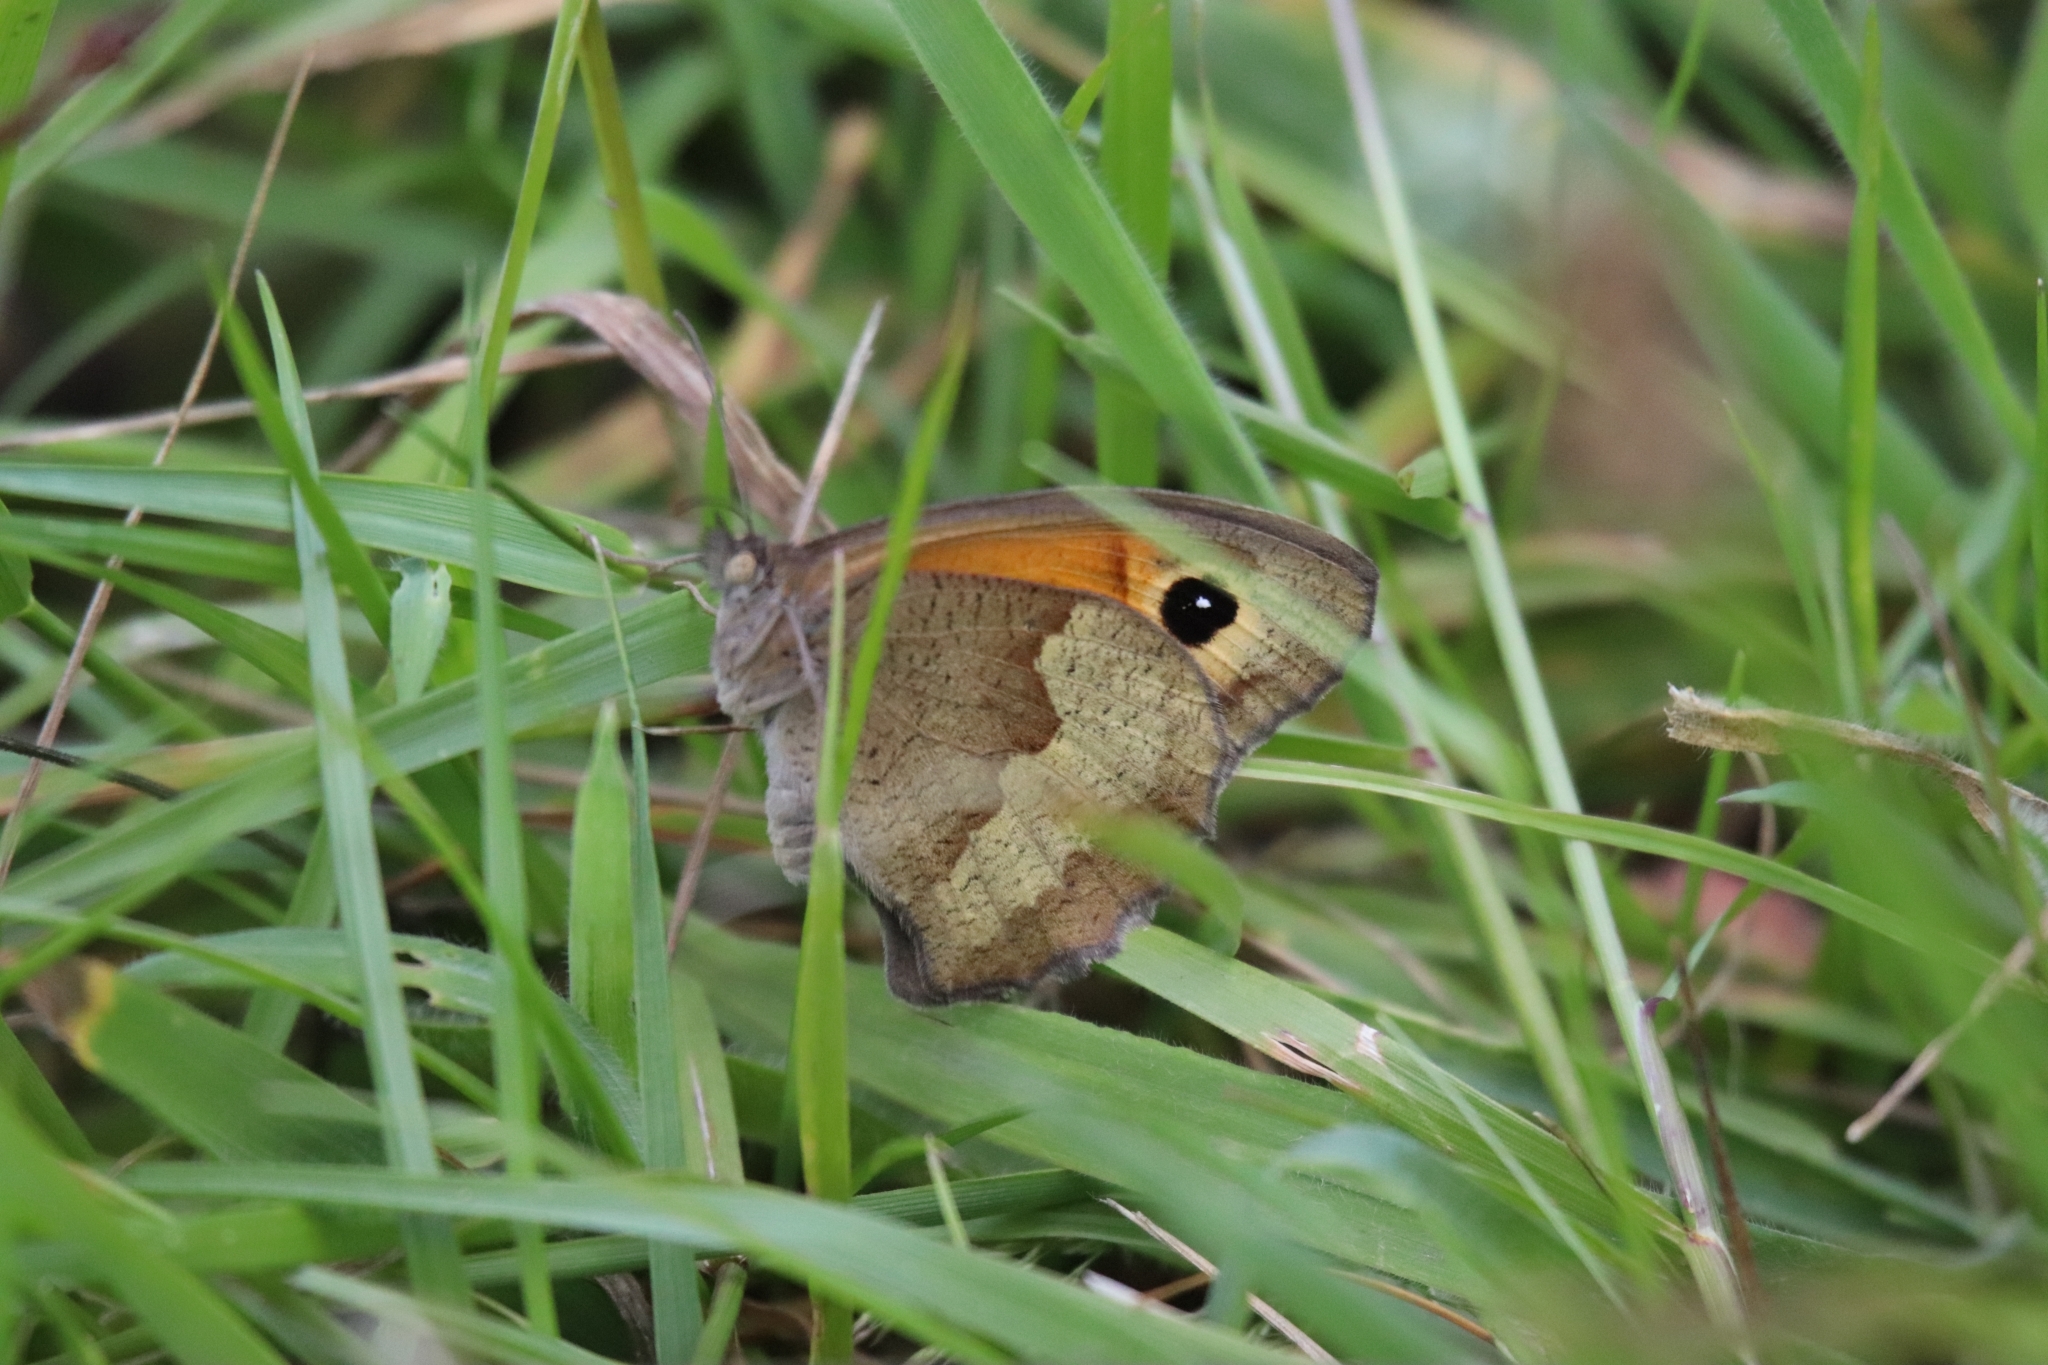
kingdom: Animalia
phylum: Arthropoda
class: Insecta
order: Lepidoptera
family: Nymphalidae
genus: Maniola
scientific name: Maniola jurtina
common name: Meadow brown
